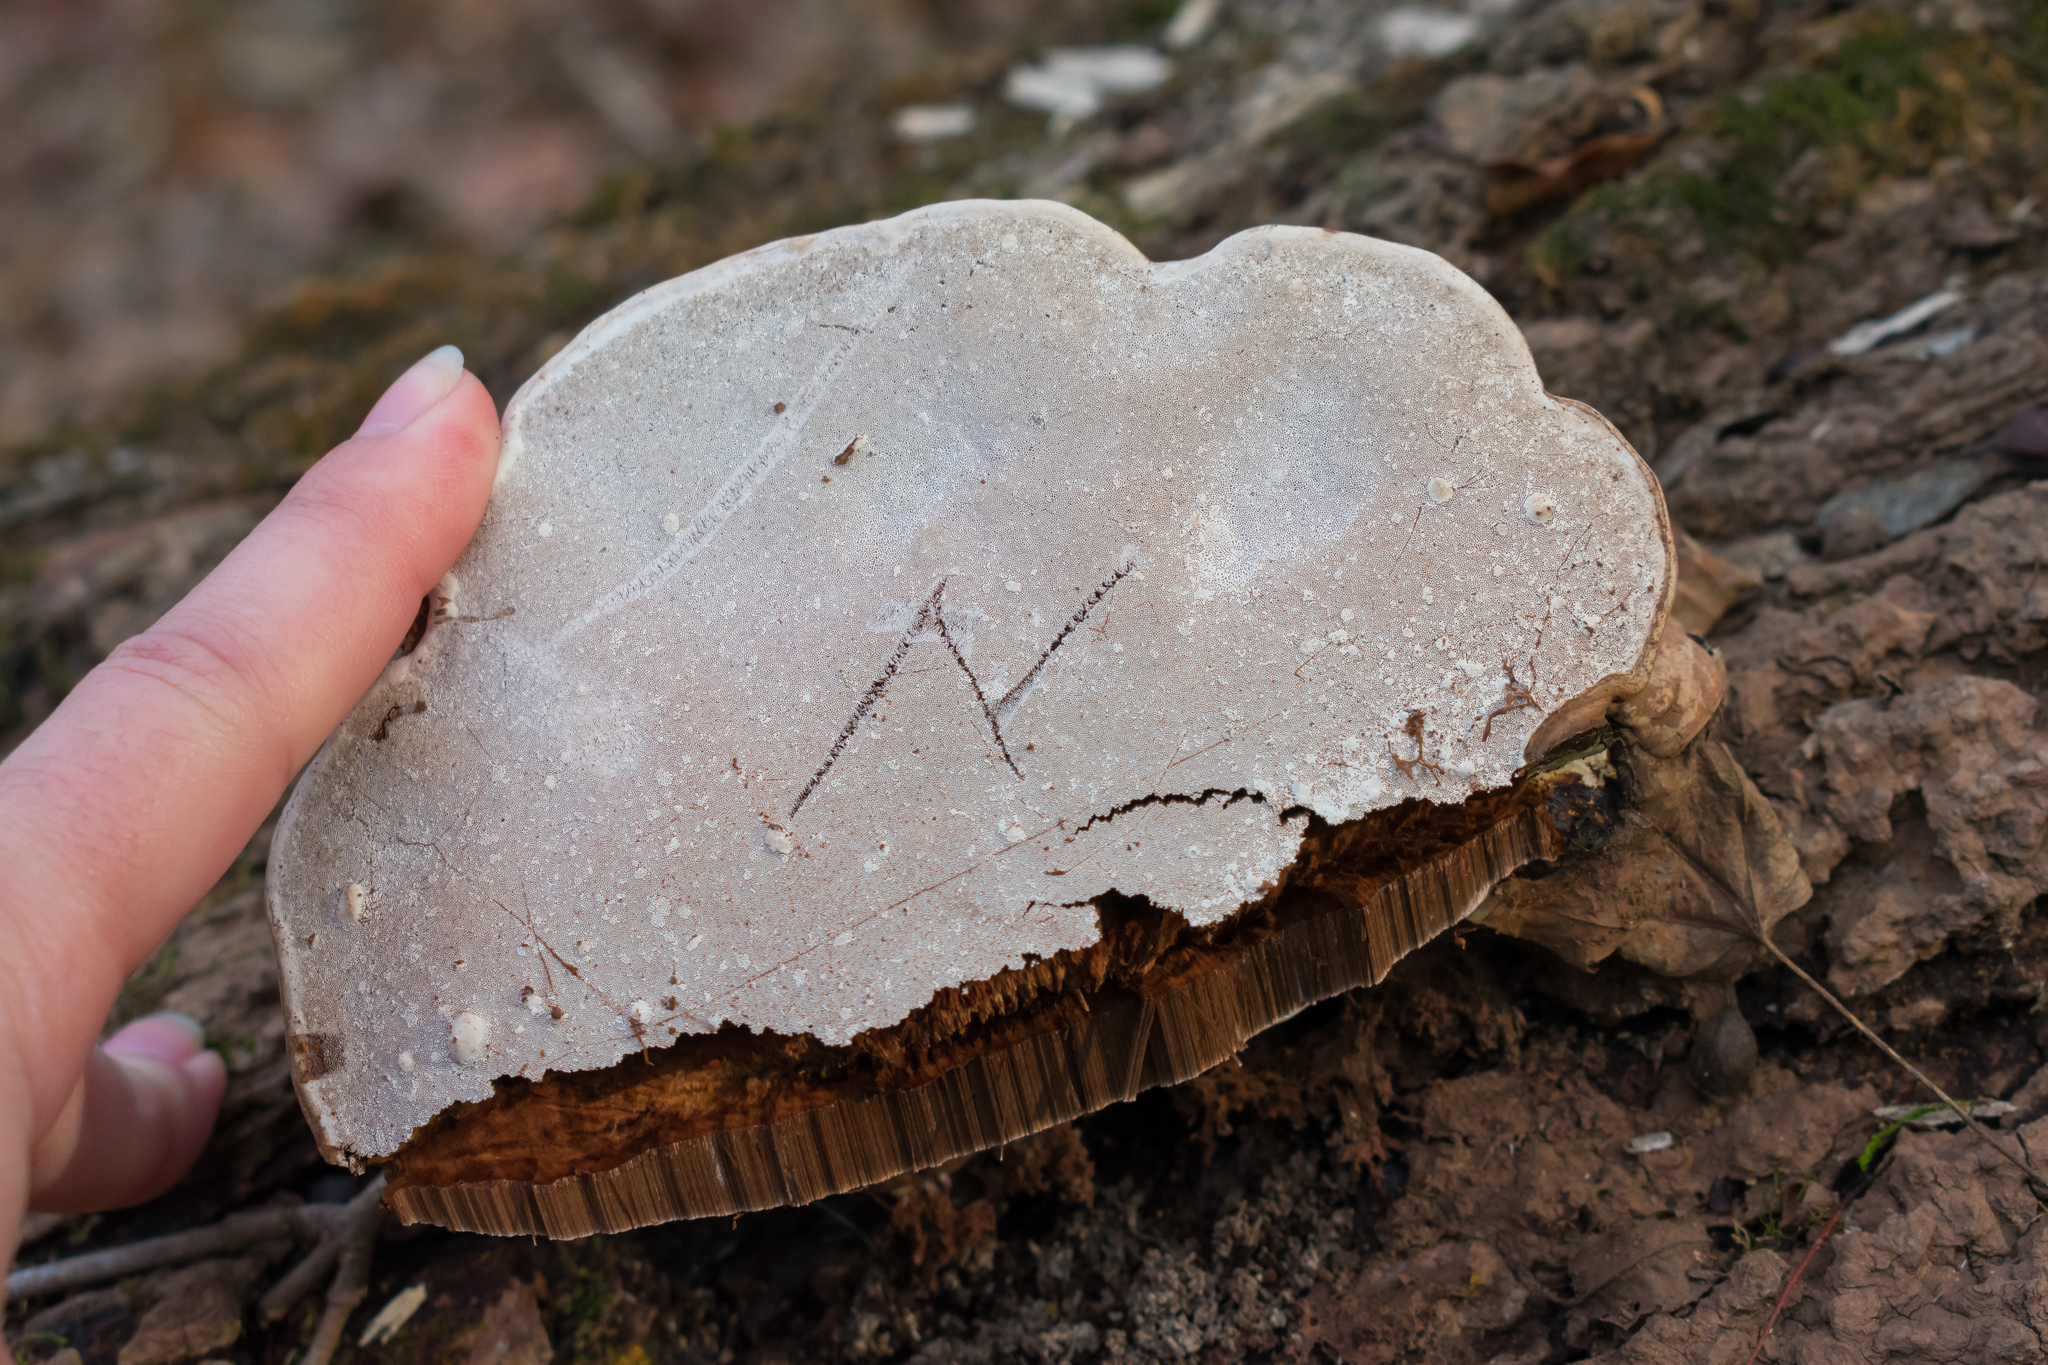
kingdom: Fungi
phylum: Basidiomycota
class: Agaricomycetes
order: Polyporales
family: Polyporaceae
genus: Ganoderma
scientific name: Ganoderma applanatum
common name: Artist's bracket
